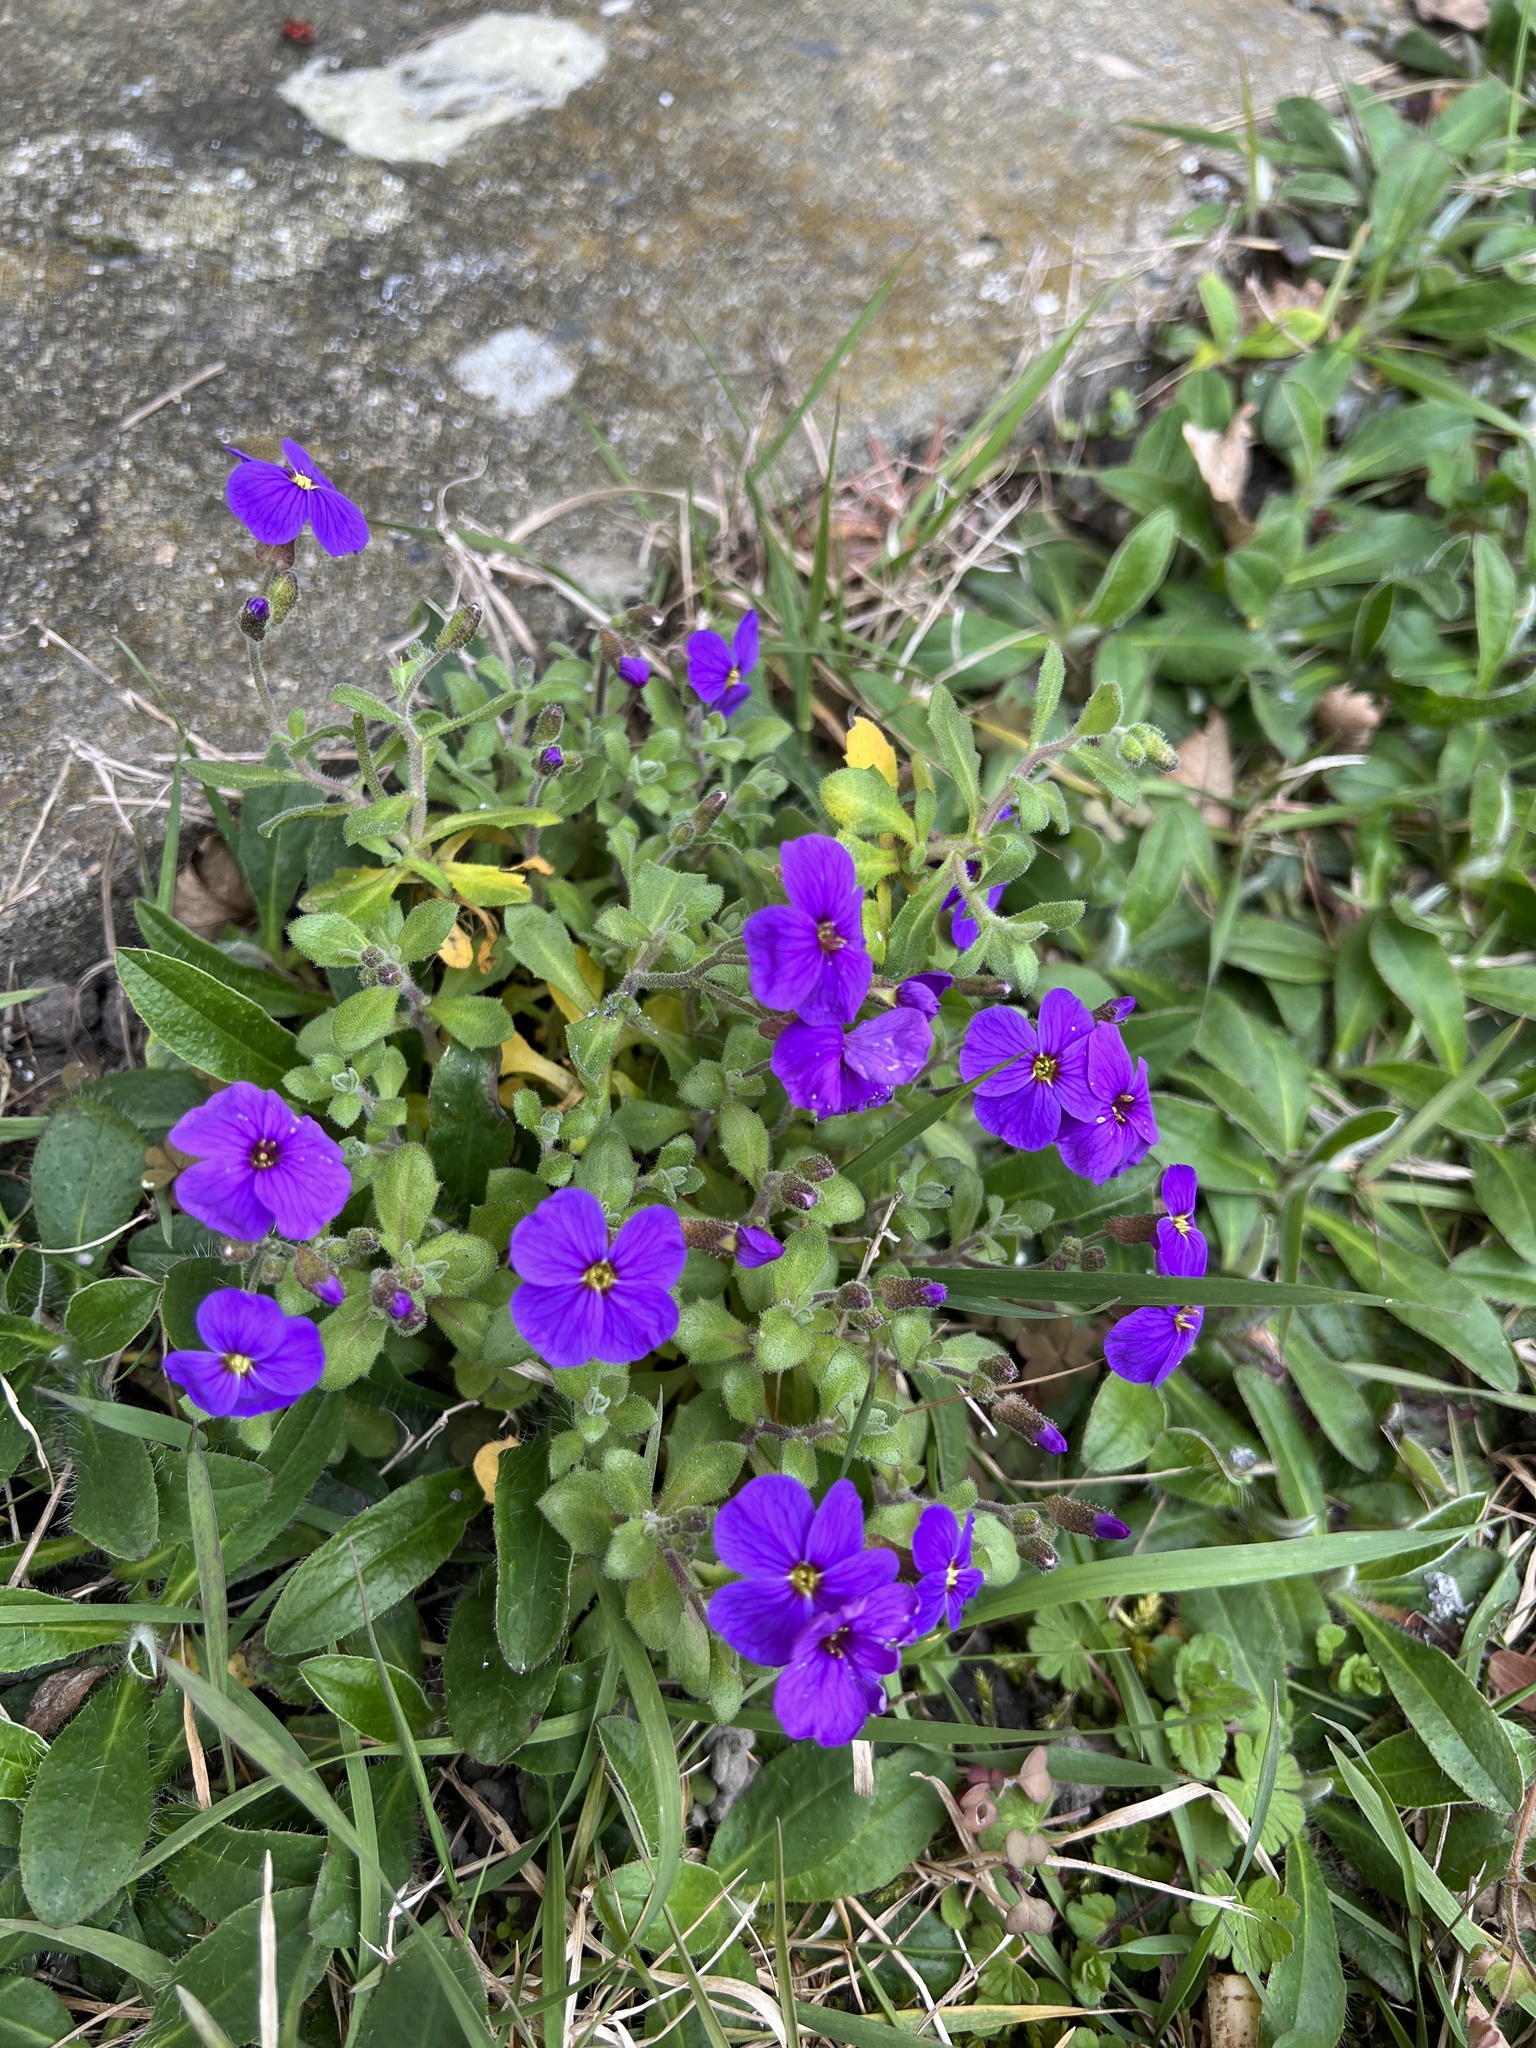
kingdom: Plantae
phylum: Tracheophyta
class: Magnoliopsida
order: Brassicales
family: Brassicaceae
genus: Aubrieta
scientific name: Aubrieta deltoidea
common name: Aubretia
